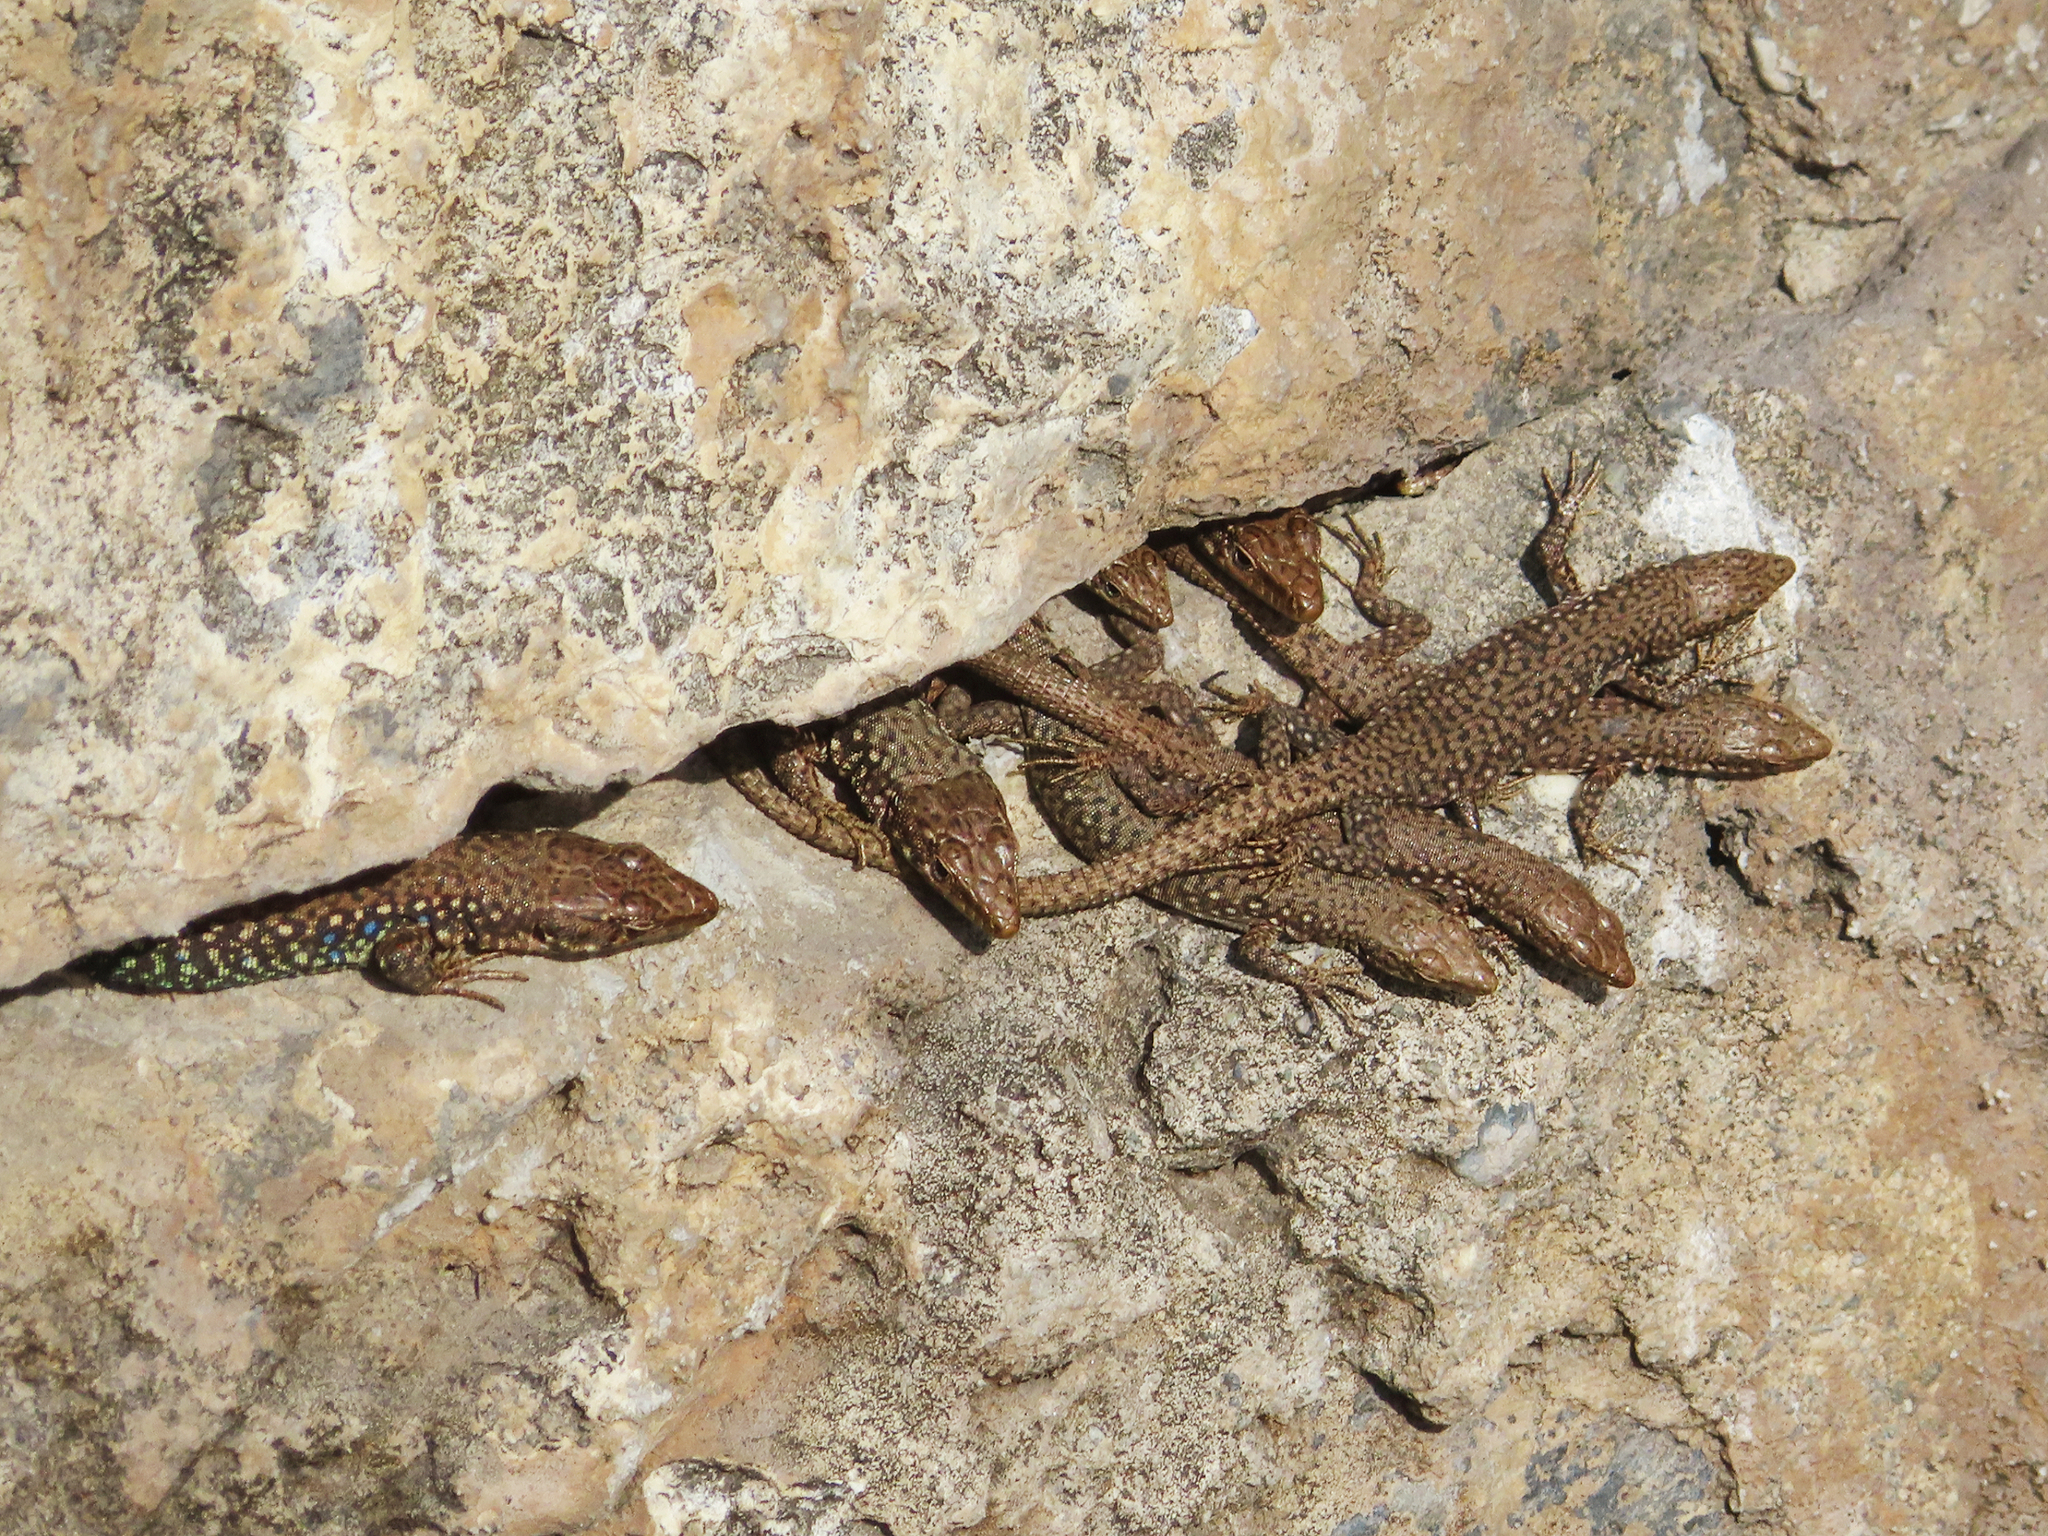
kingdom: Animalia
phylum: Chordata
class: Squamata
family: Lacertidae
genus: Darevskia
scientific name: Darevskia
